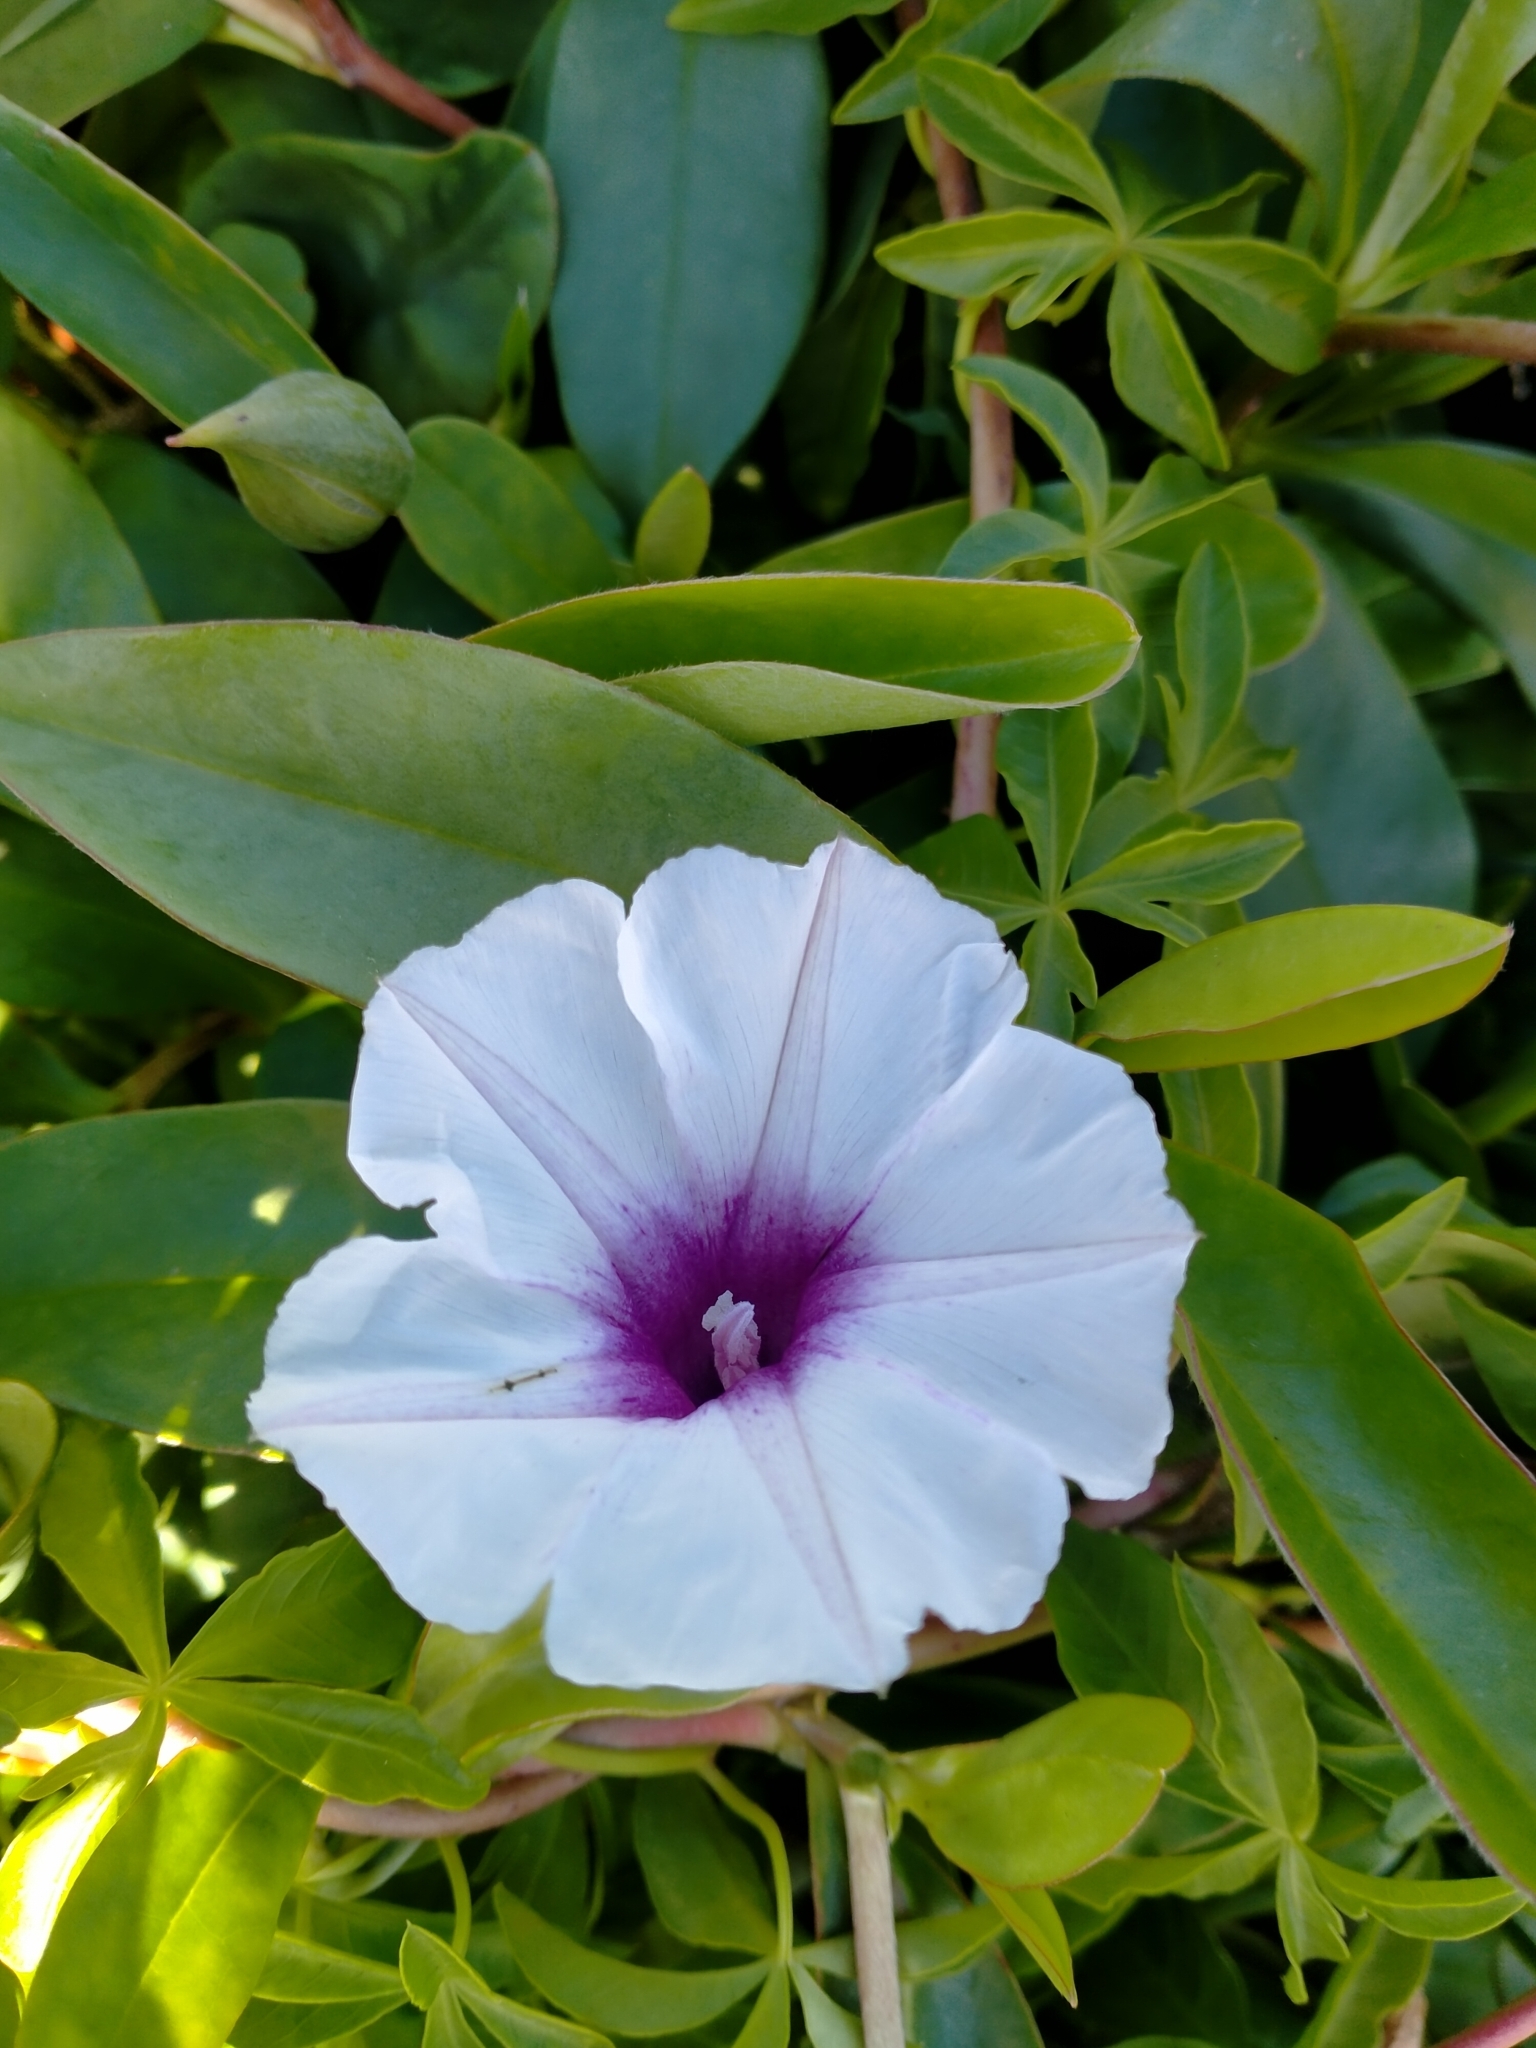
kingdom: Plantae
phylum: Tracheophyta
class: Magnoliopsida
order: Solanales
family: Convolvulaceae
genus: Ipomoea
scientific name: Ipomoea cairica
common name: Mile a minute vine
